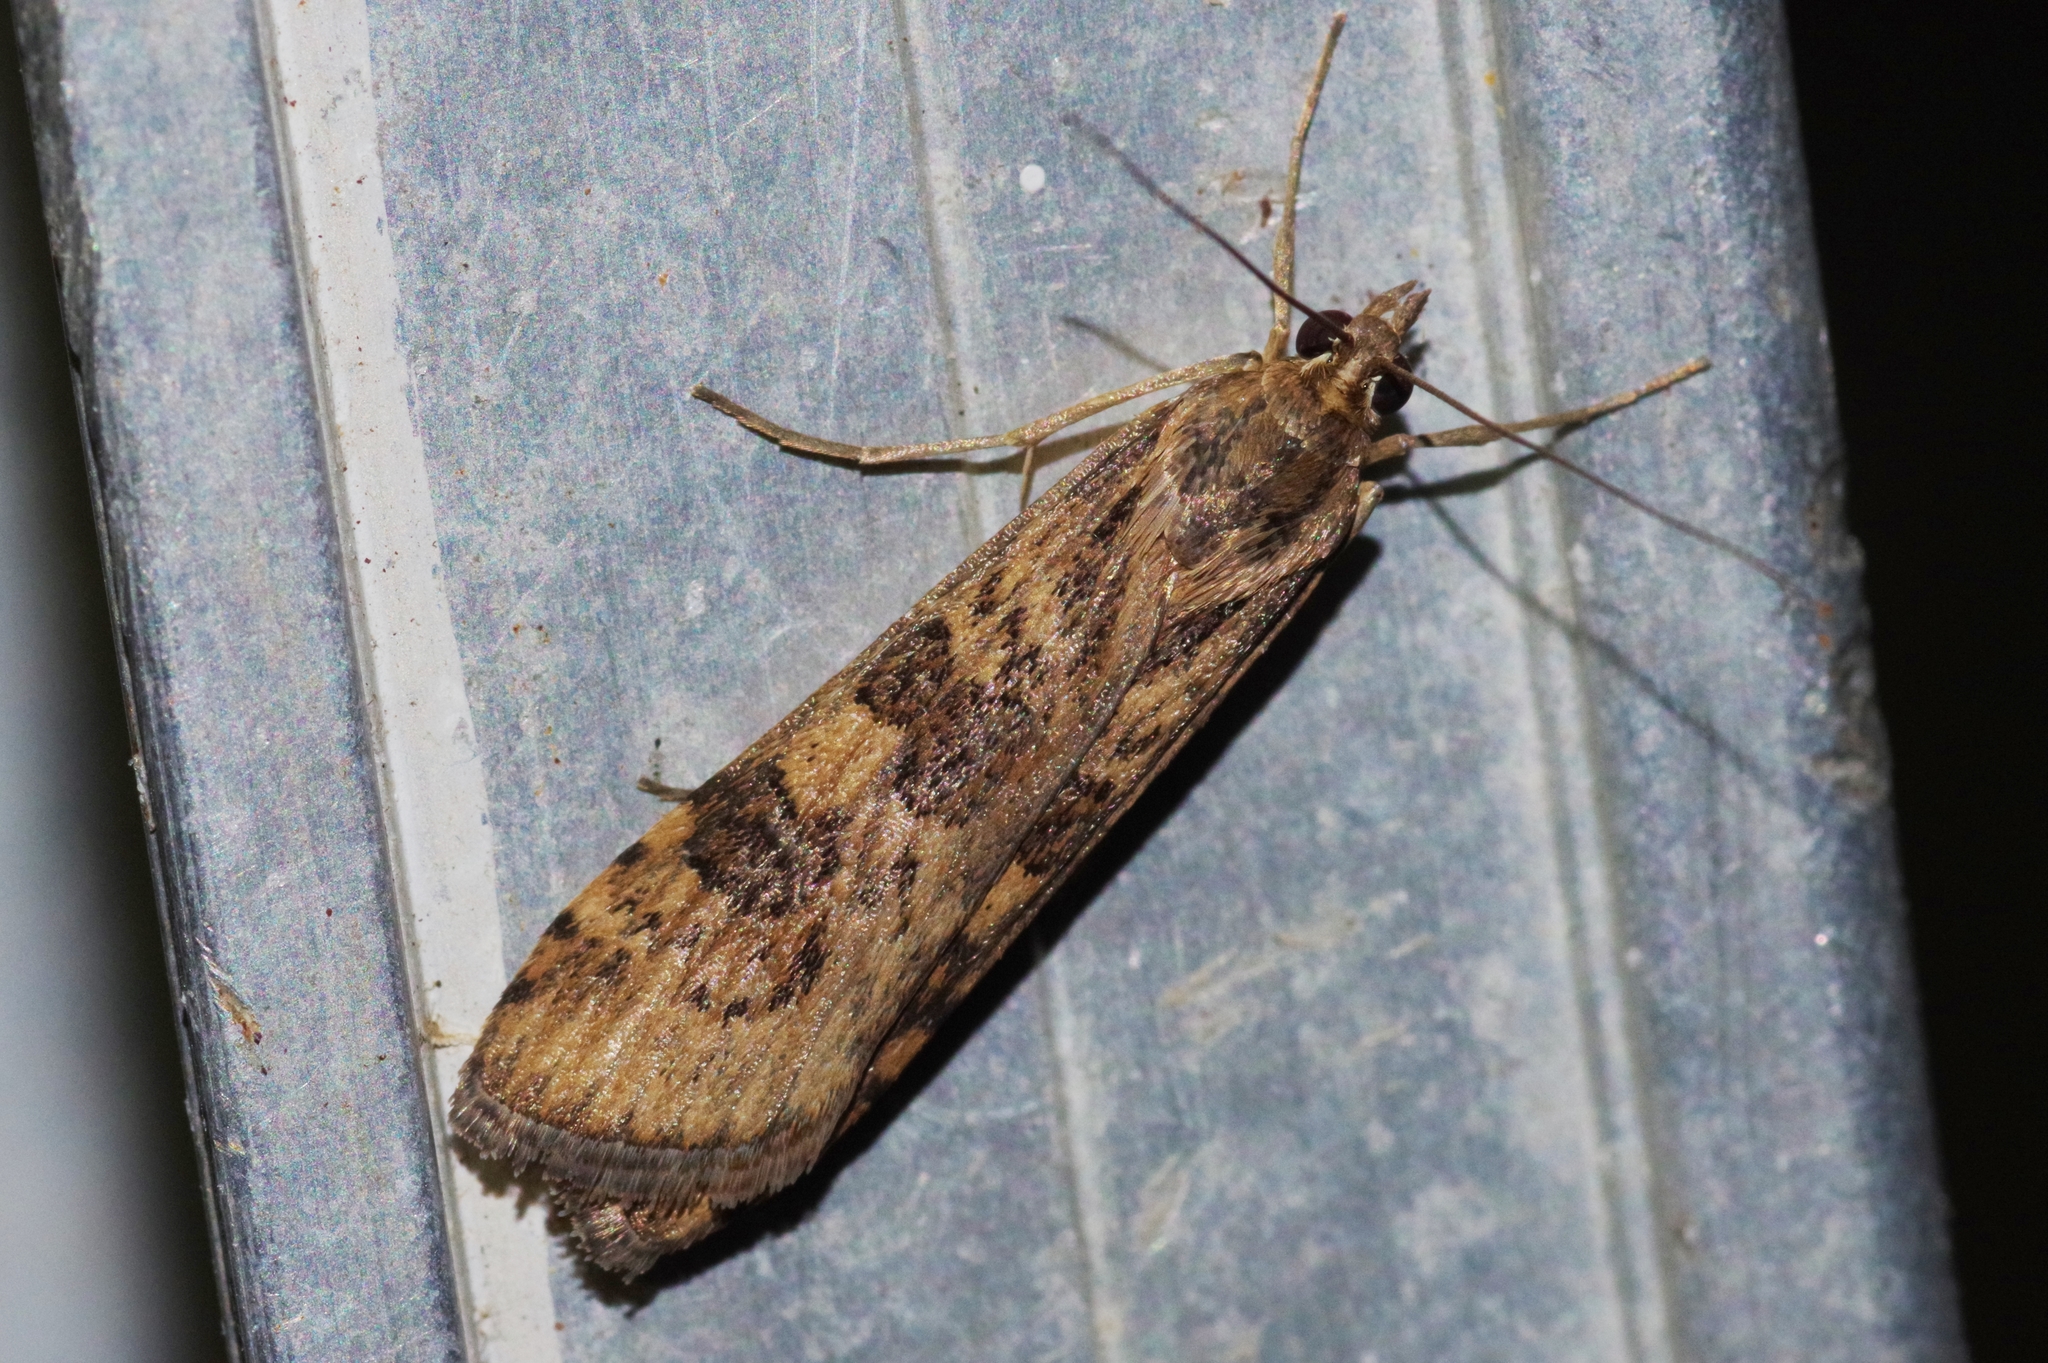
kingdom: Animalia
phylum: Arthropoda
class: Insecta
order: Lepidoptera
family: Crambidae
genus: Nomophila
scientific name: Nomophila noctuella
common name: Rush veneer
